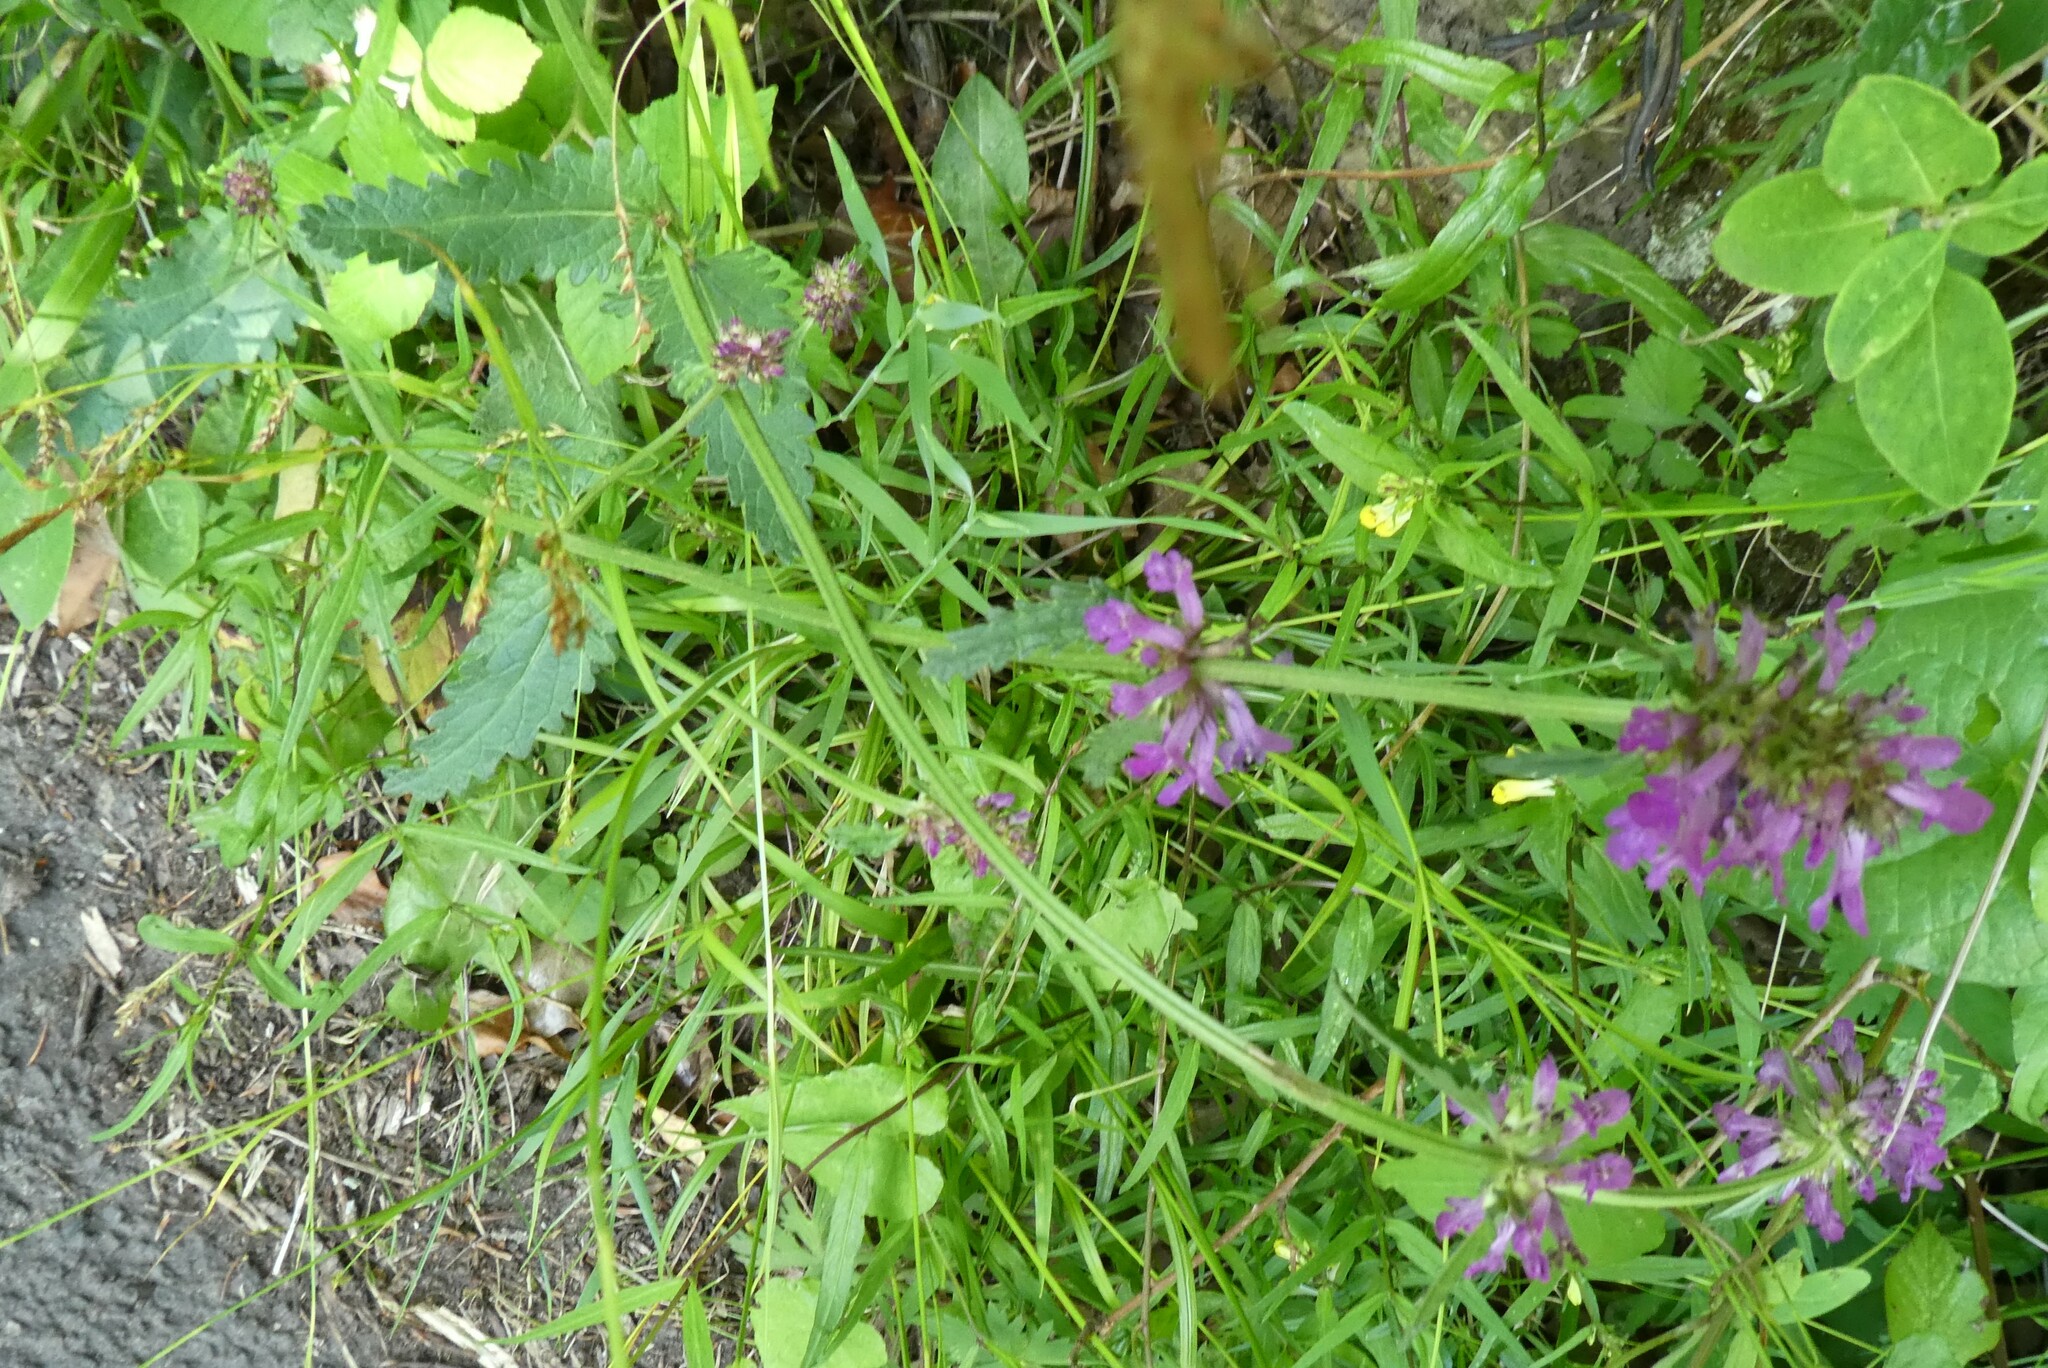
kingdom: Plantae
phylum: Tracheophyta
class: Magnoliopsida
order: Lamiales
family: Lamiaceae
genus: Betonica
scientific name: Betonica officinalis
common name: Bishop's-wort
